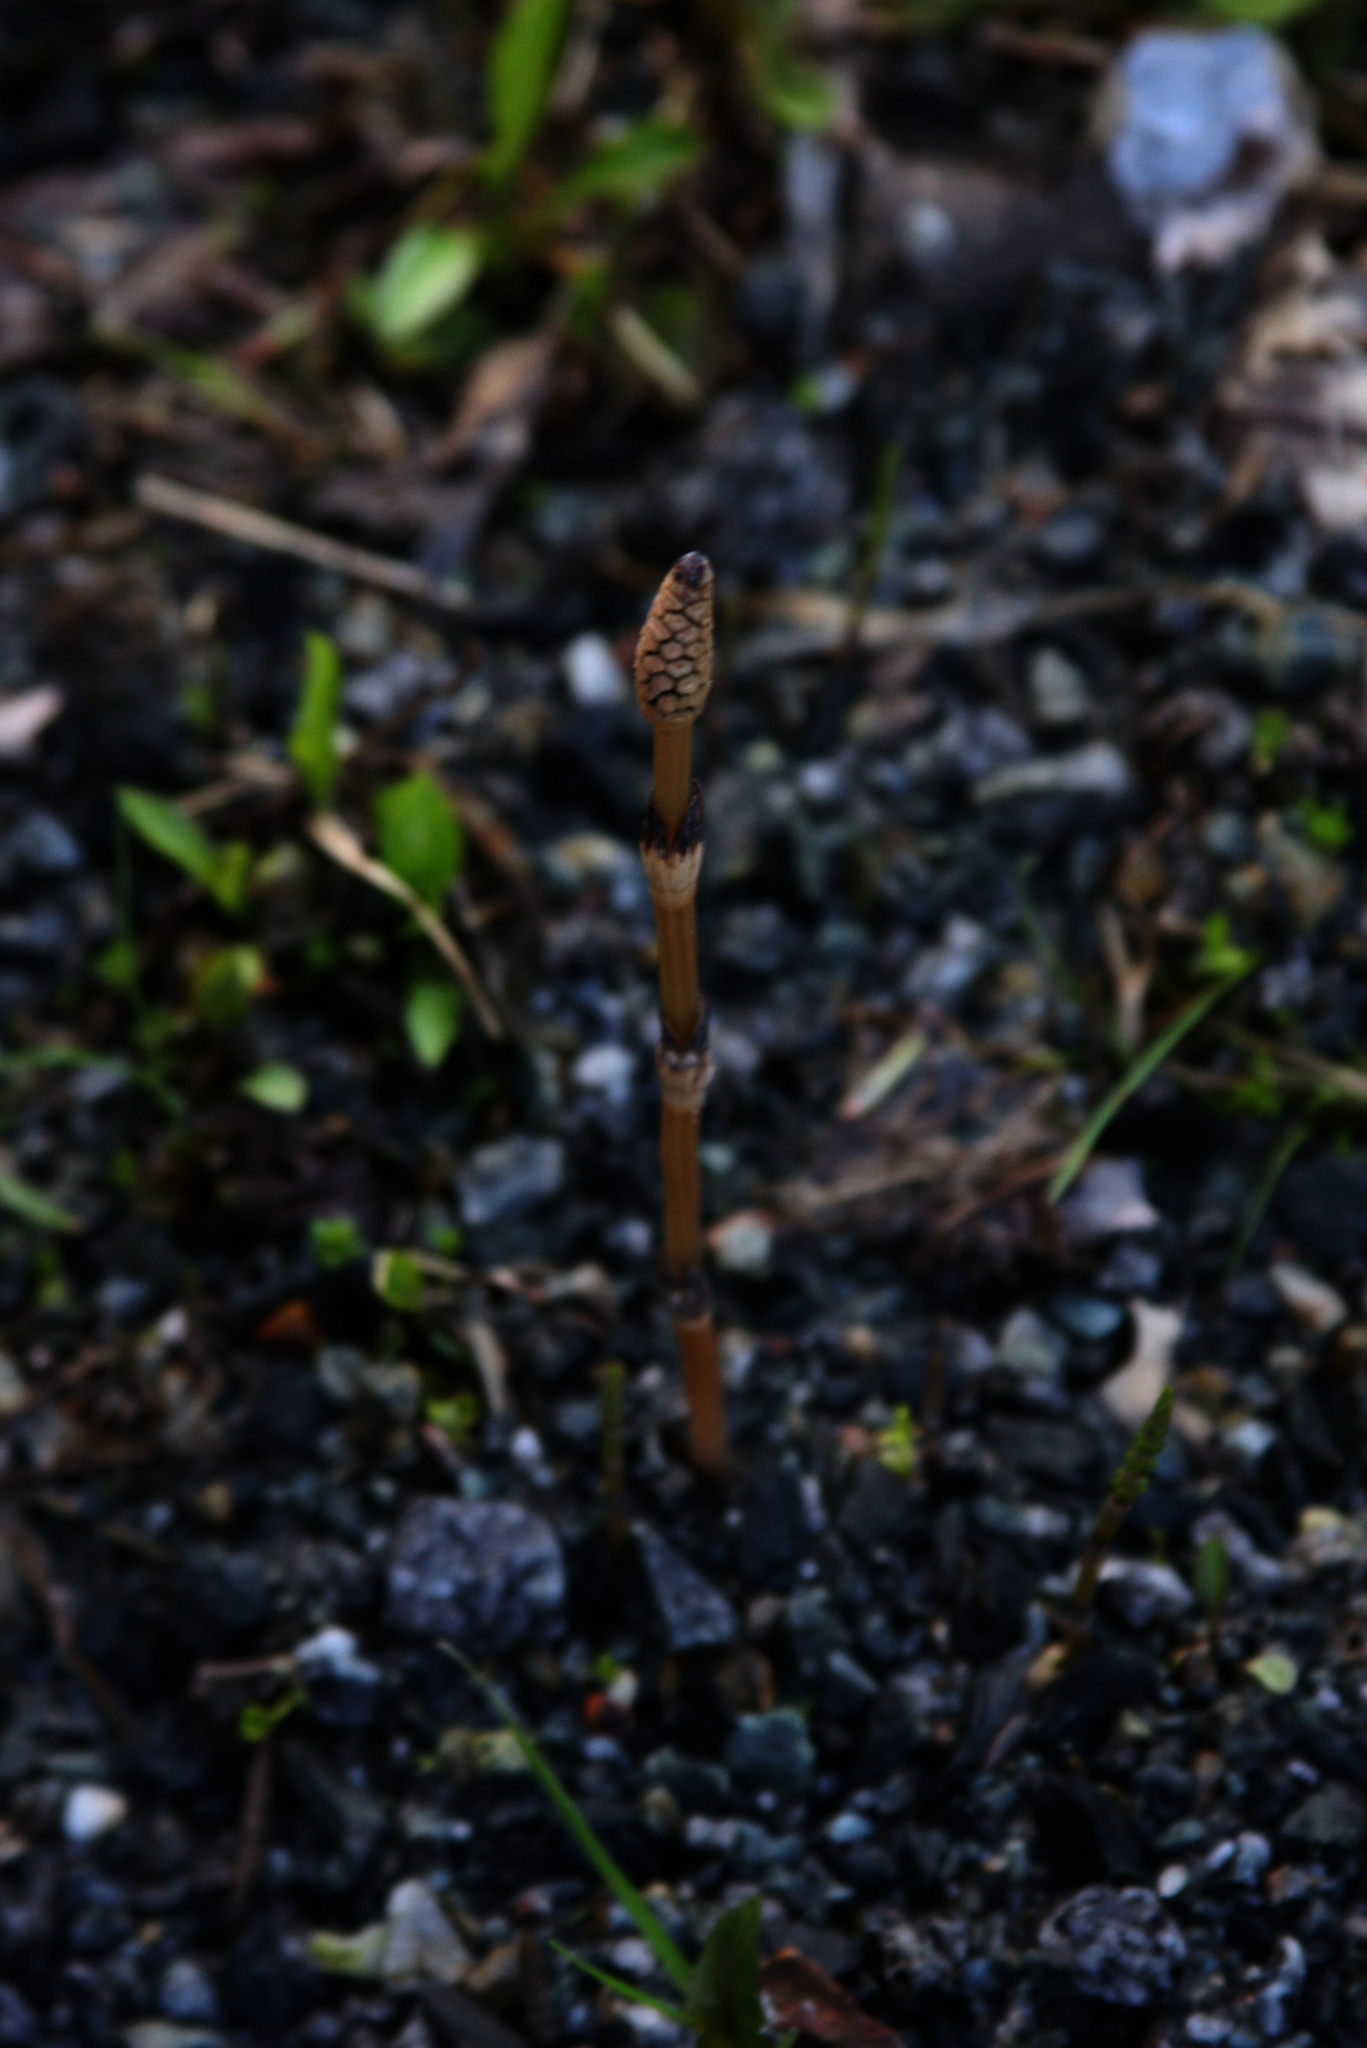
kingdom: Plantae
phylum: Tracheophyta
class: Polypodiopsida
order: Equisetales
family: Equisetaceae
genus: Equisetum
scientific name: Equisetum arvense
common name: Field horsetail
